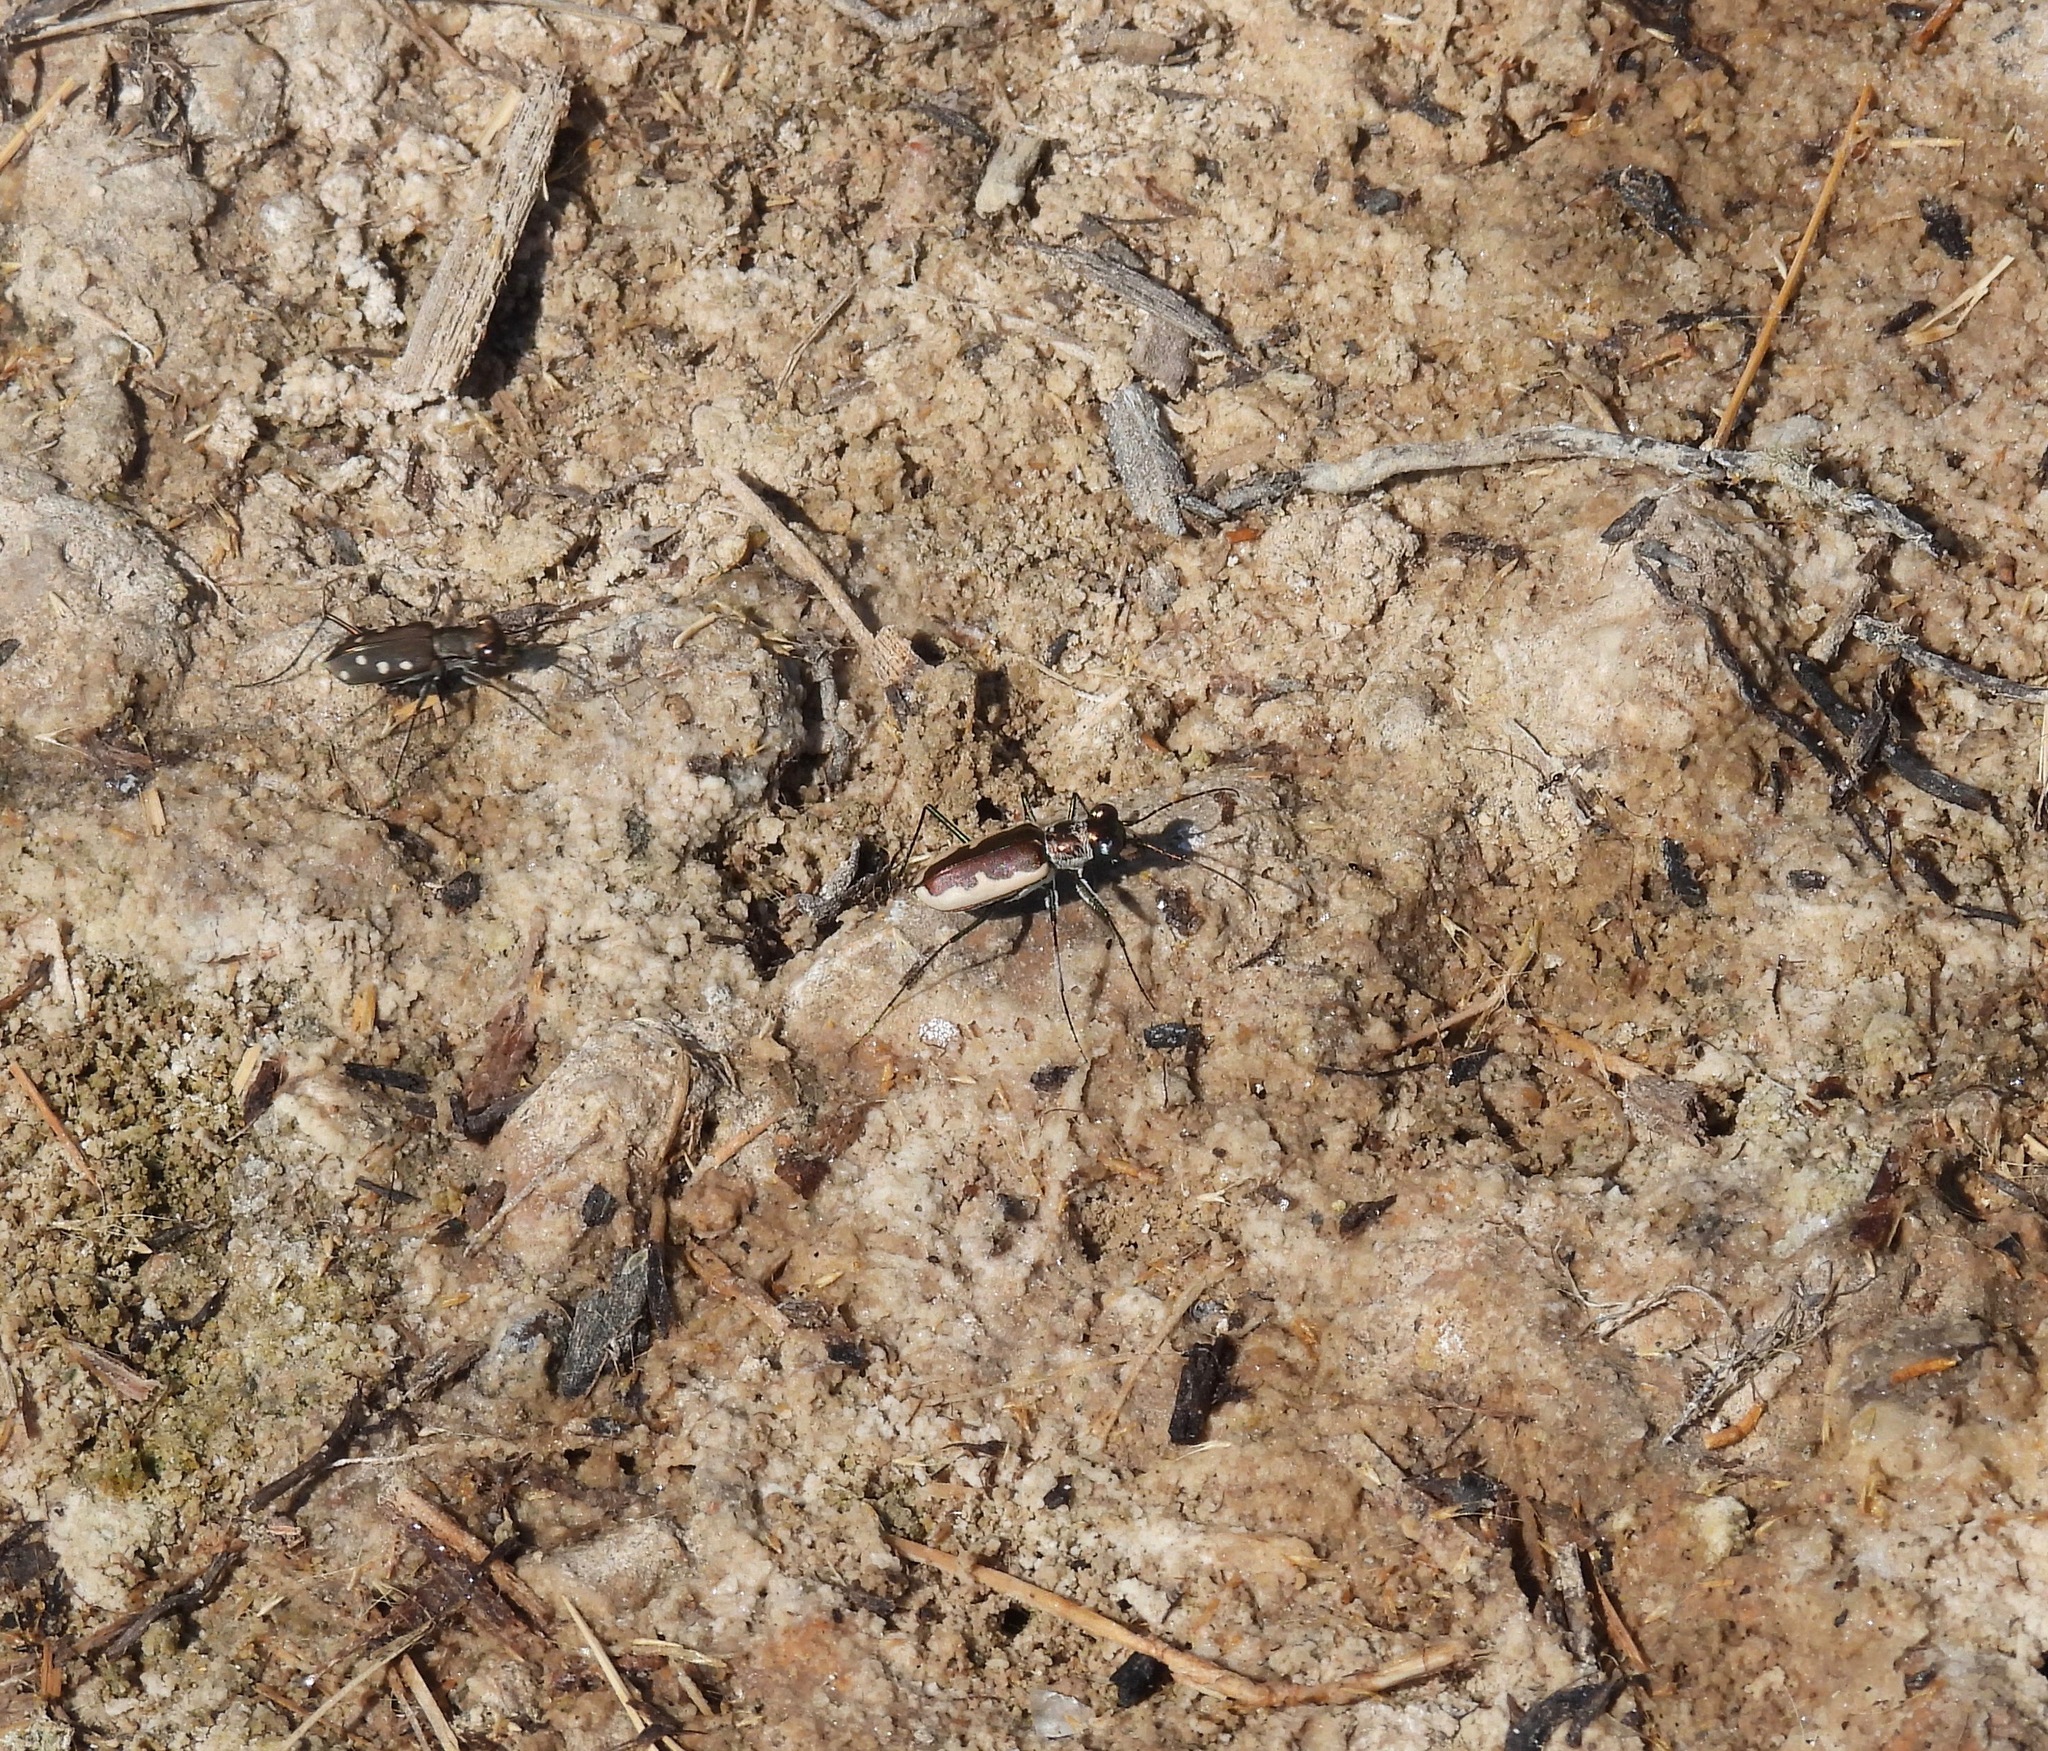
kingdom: Animalia
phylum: Arthropoda
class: Insecta
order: Coleoptera
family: Carabidae
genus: Eunota
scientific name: Eunota circumpicta
